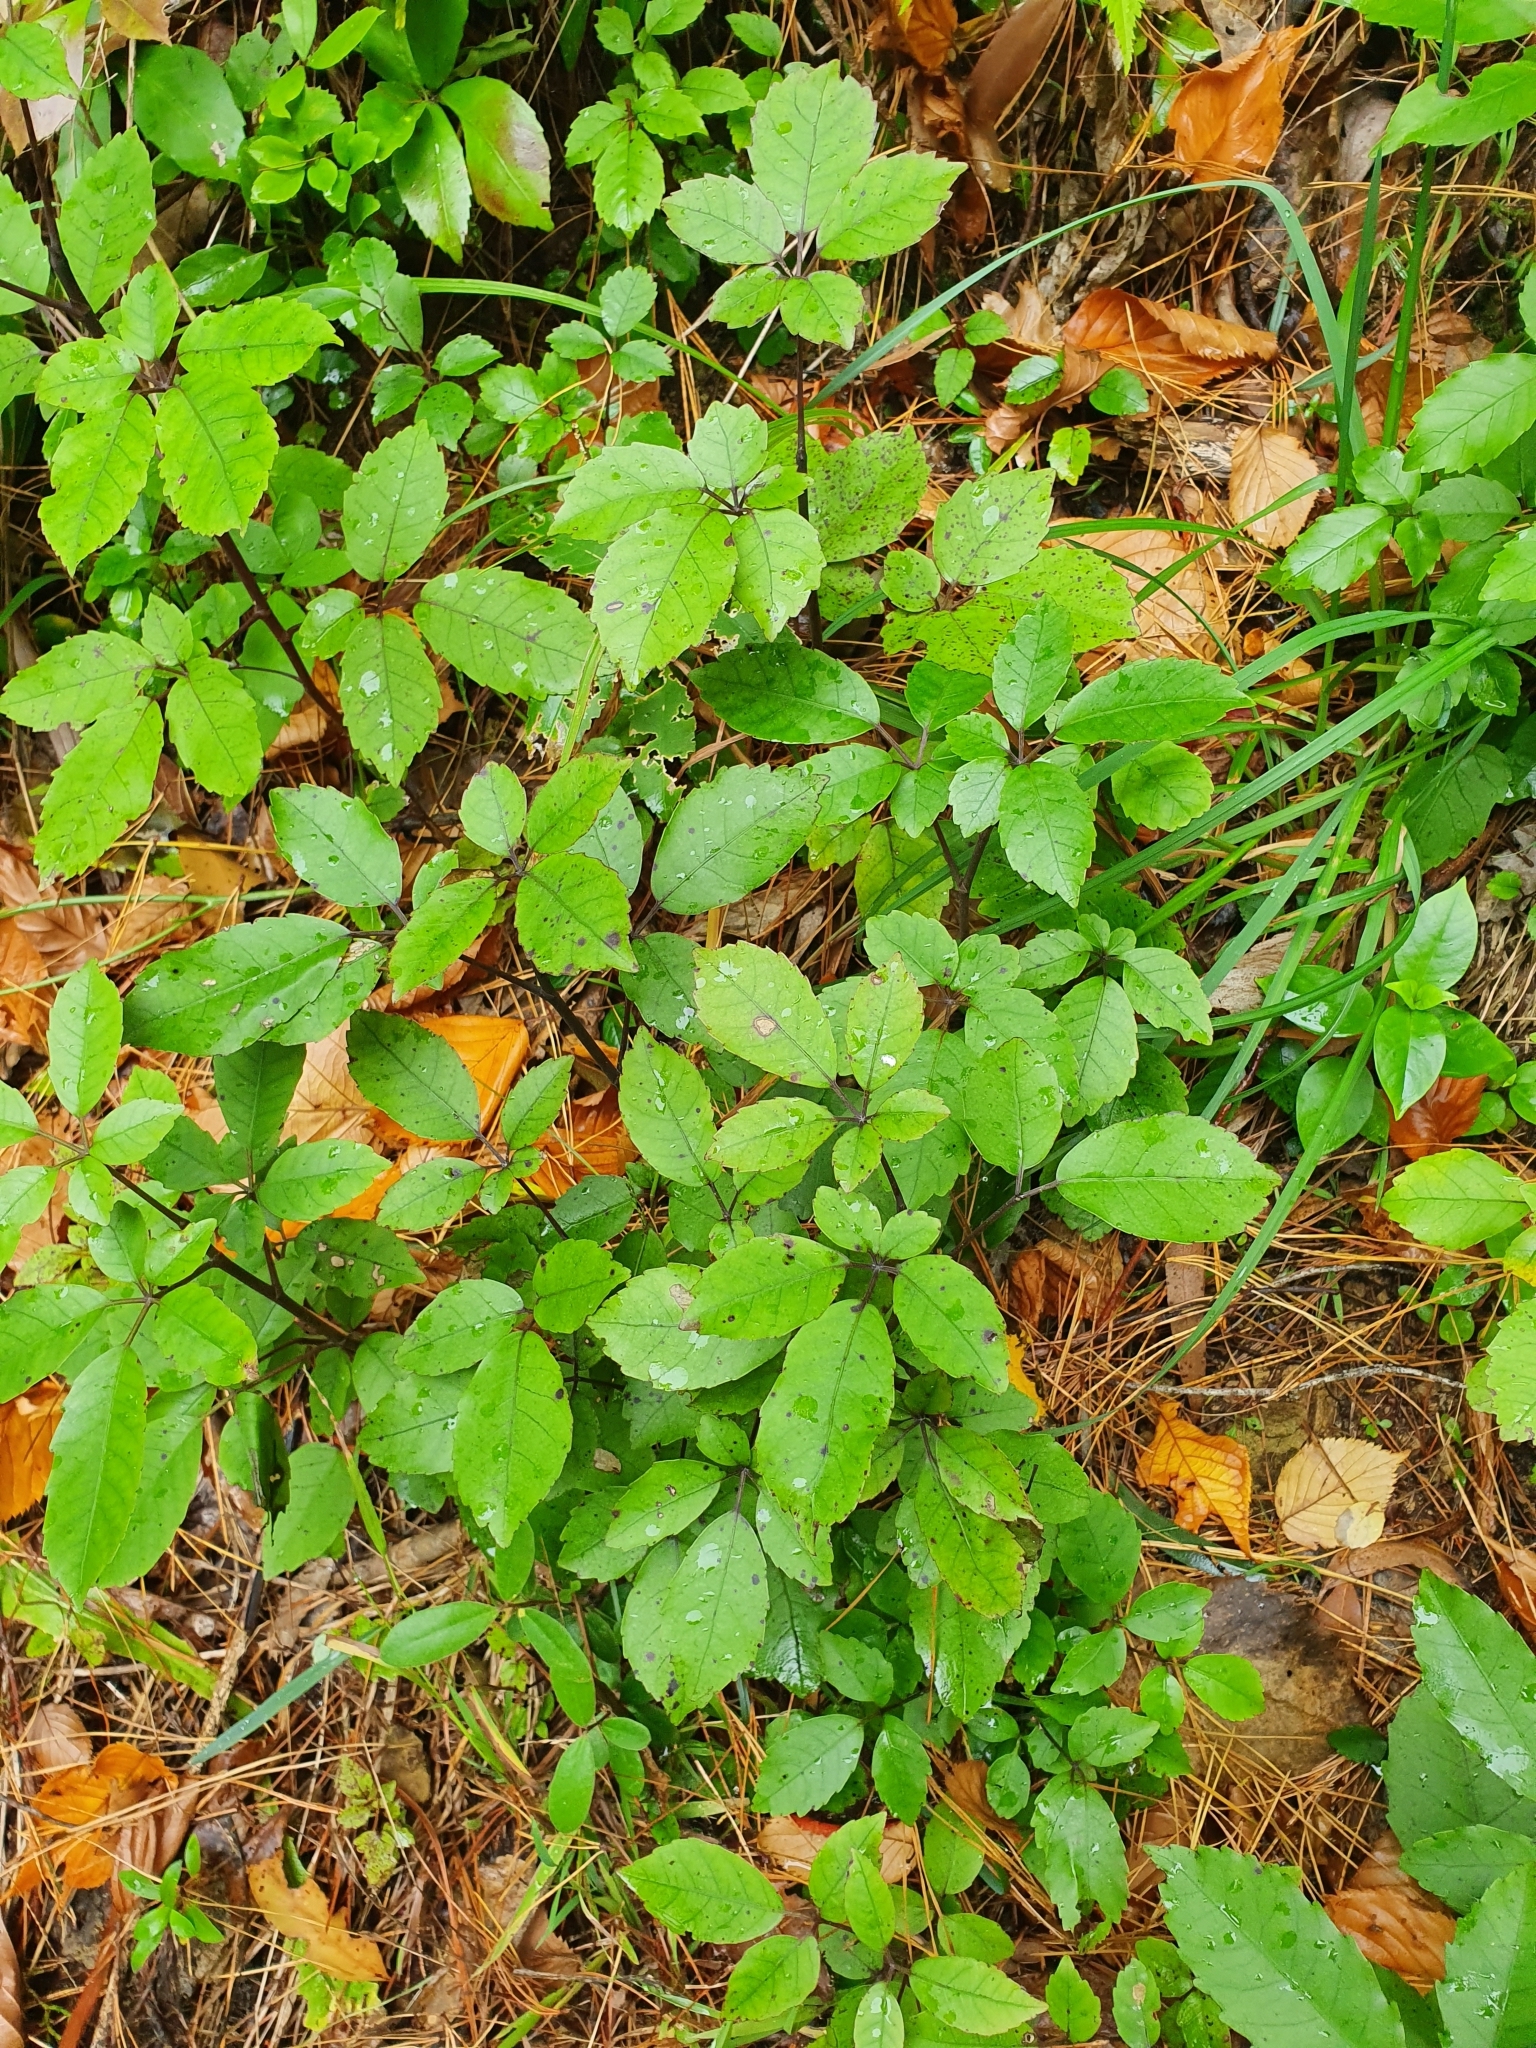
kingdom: Plantae
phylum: Tracheophyta
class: Magnoliopsida
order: Apiales
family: Araliaceae
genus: Neopanax
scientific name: Neopanax arboreus
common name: Five-fingers
